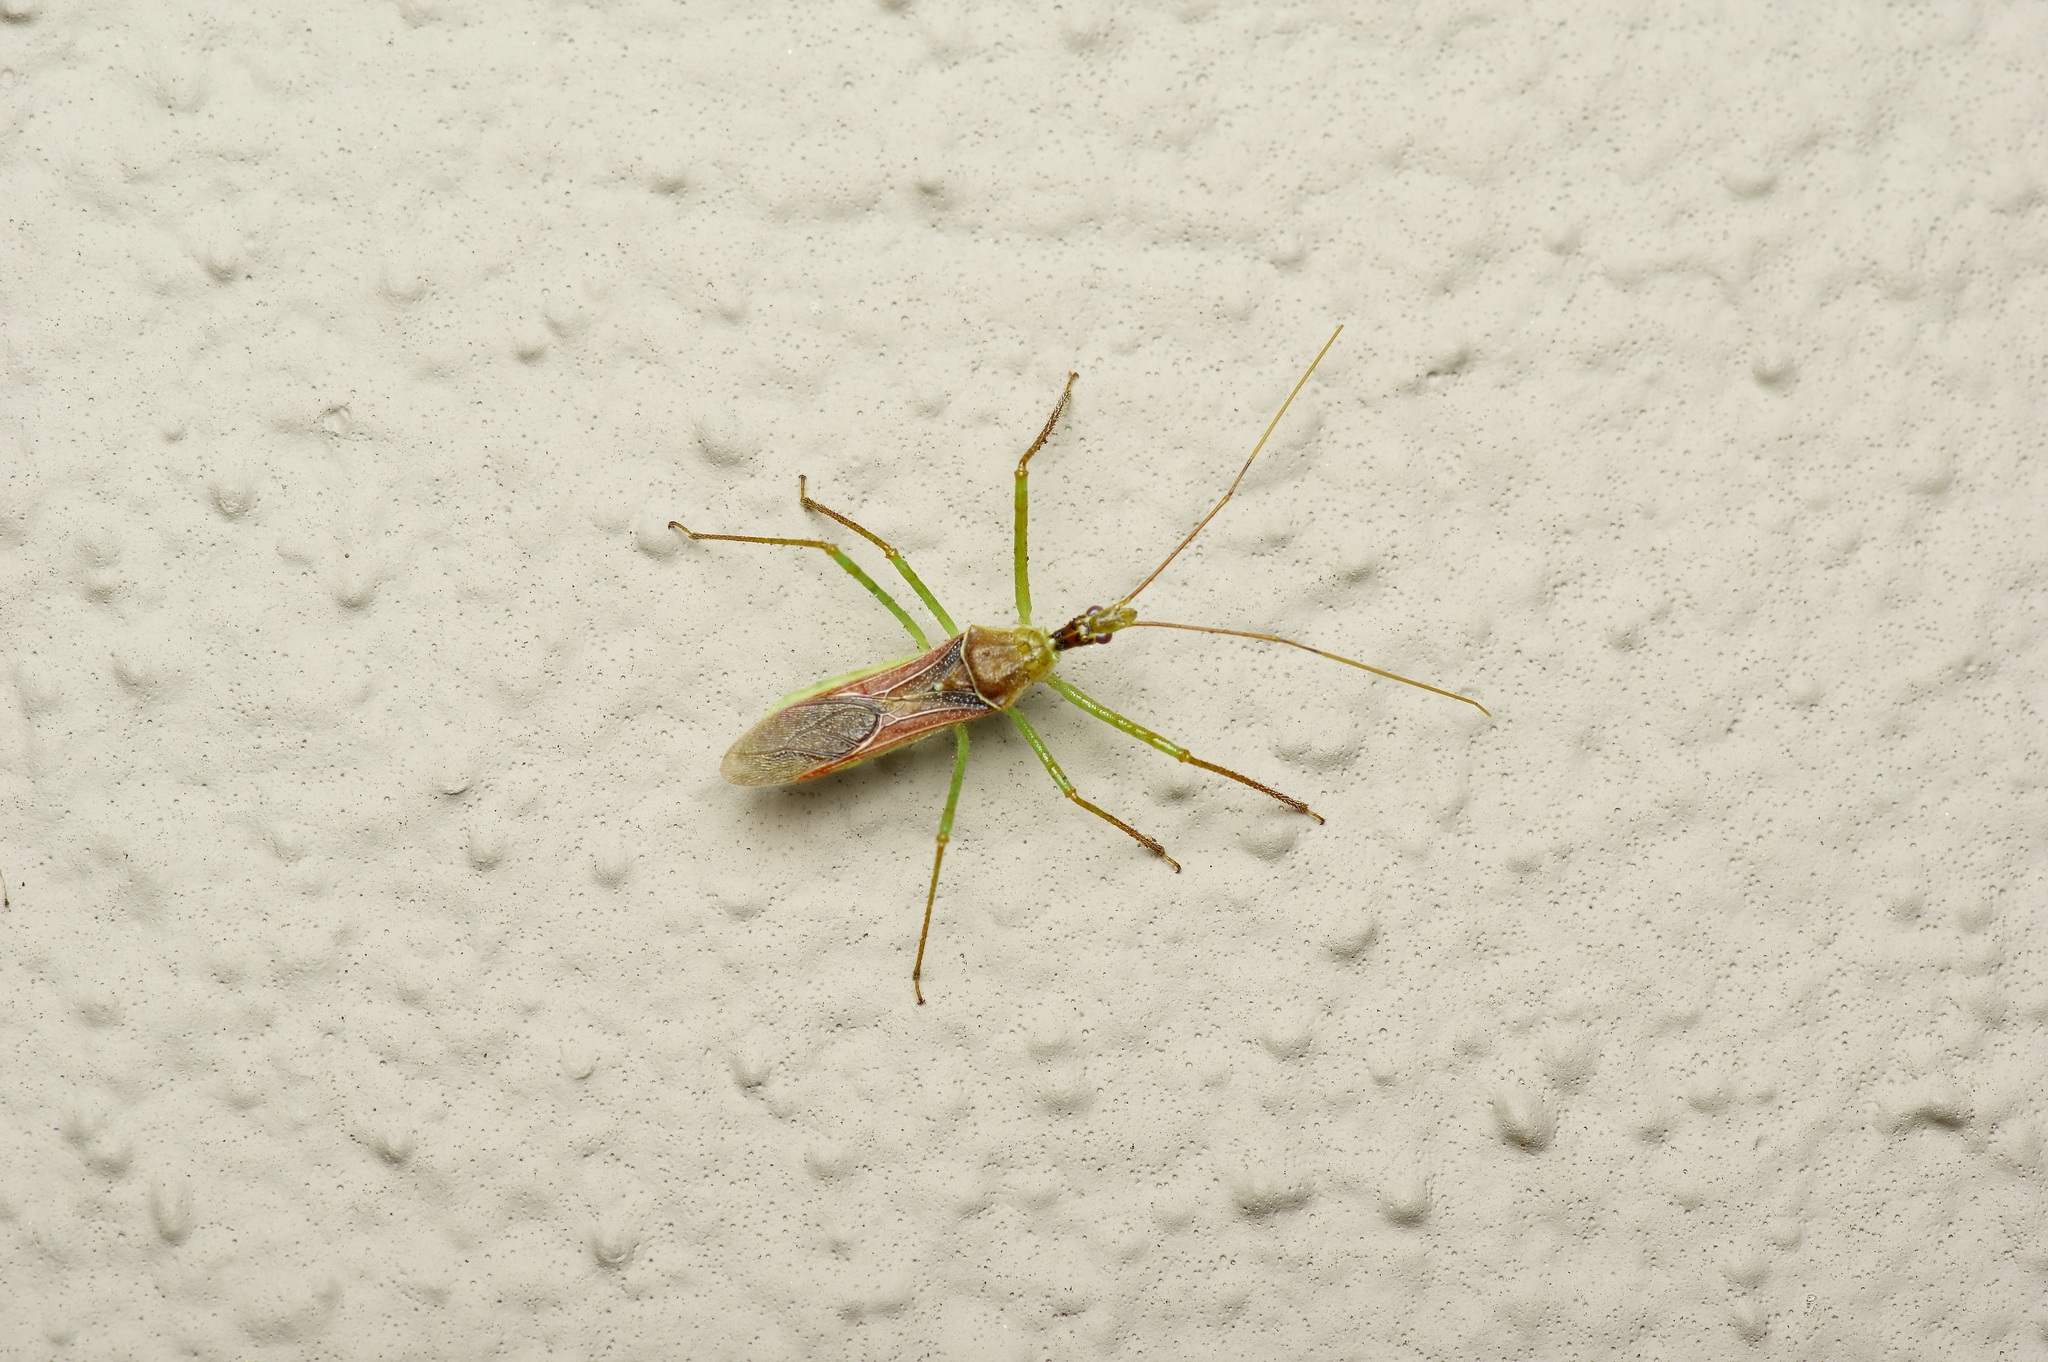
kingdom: Animalia
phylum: Arthropoda
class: Insecta
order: Hemiptera
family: Reduviidae
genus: Zelus
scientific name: Zelus renardii
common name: Assassin bug
